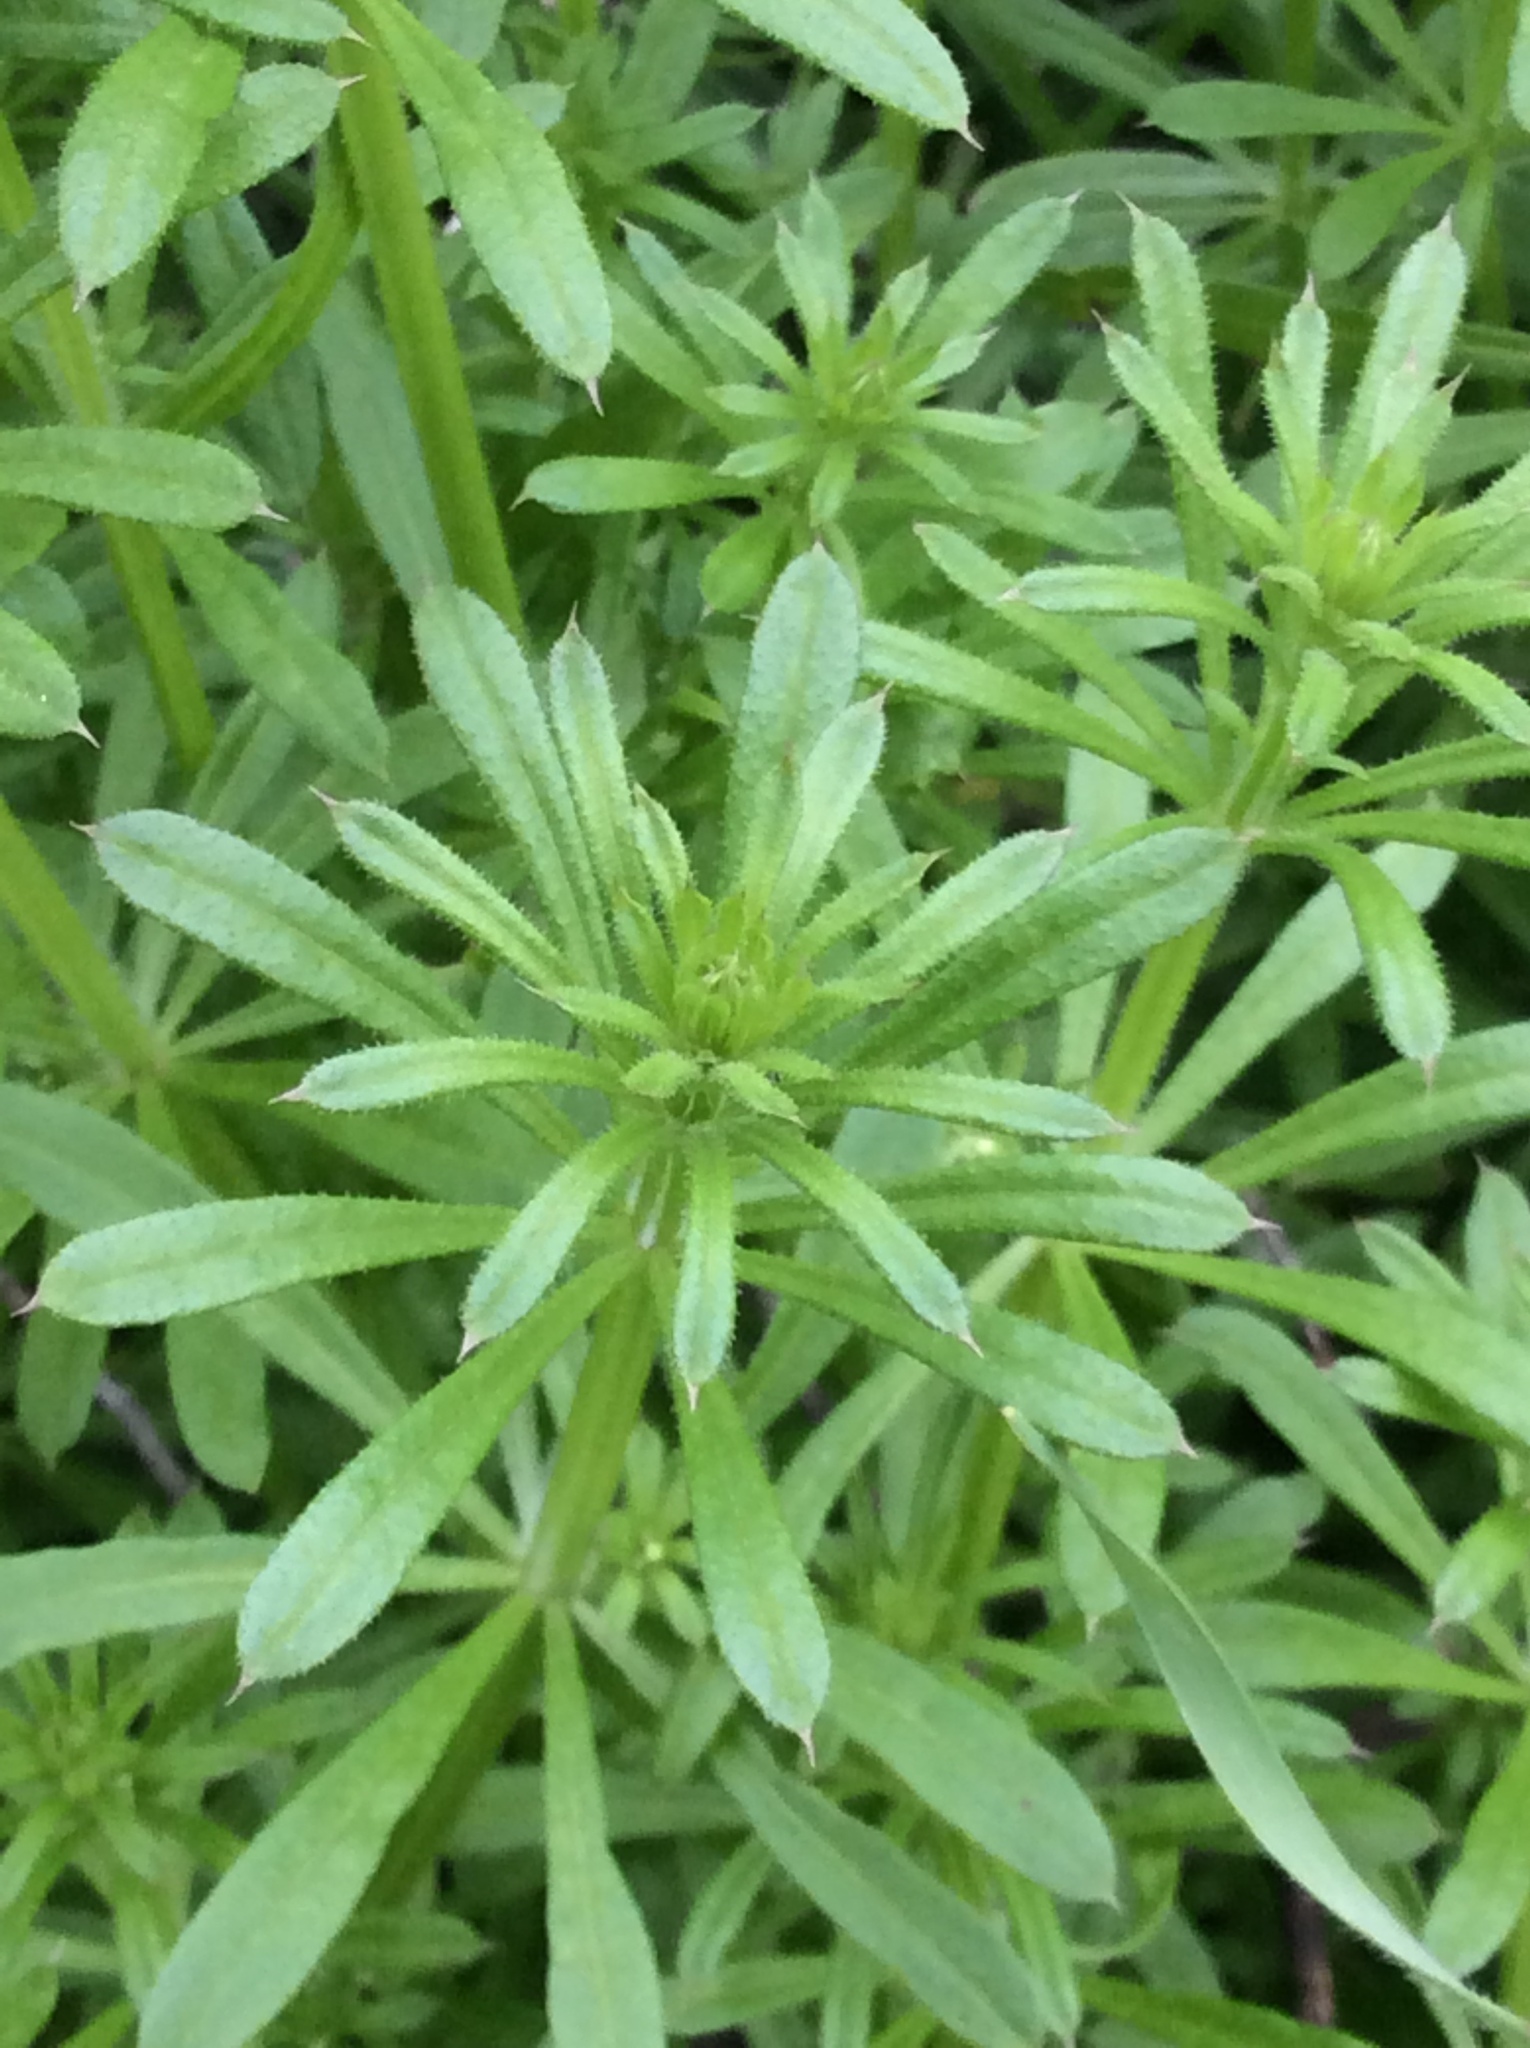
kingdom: Plantae
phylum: Tracheophyta
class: Magnoliopsida
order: Gentianales
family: Rubiaceae
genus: Galium
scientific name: Galium aparine
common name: Cleavers
